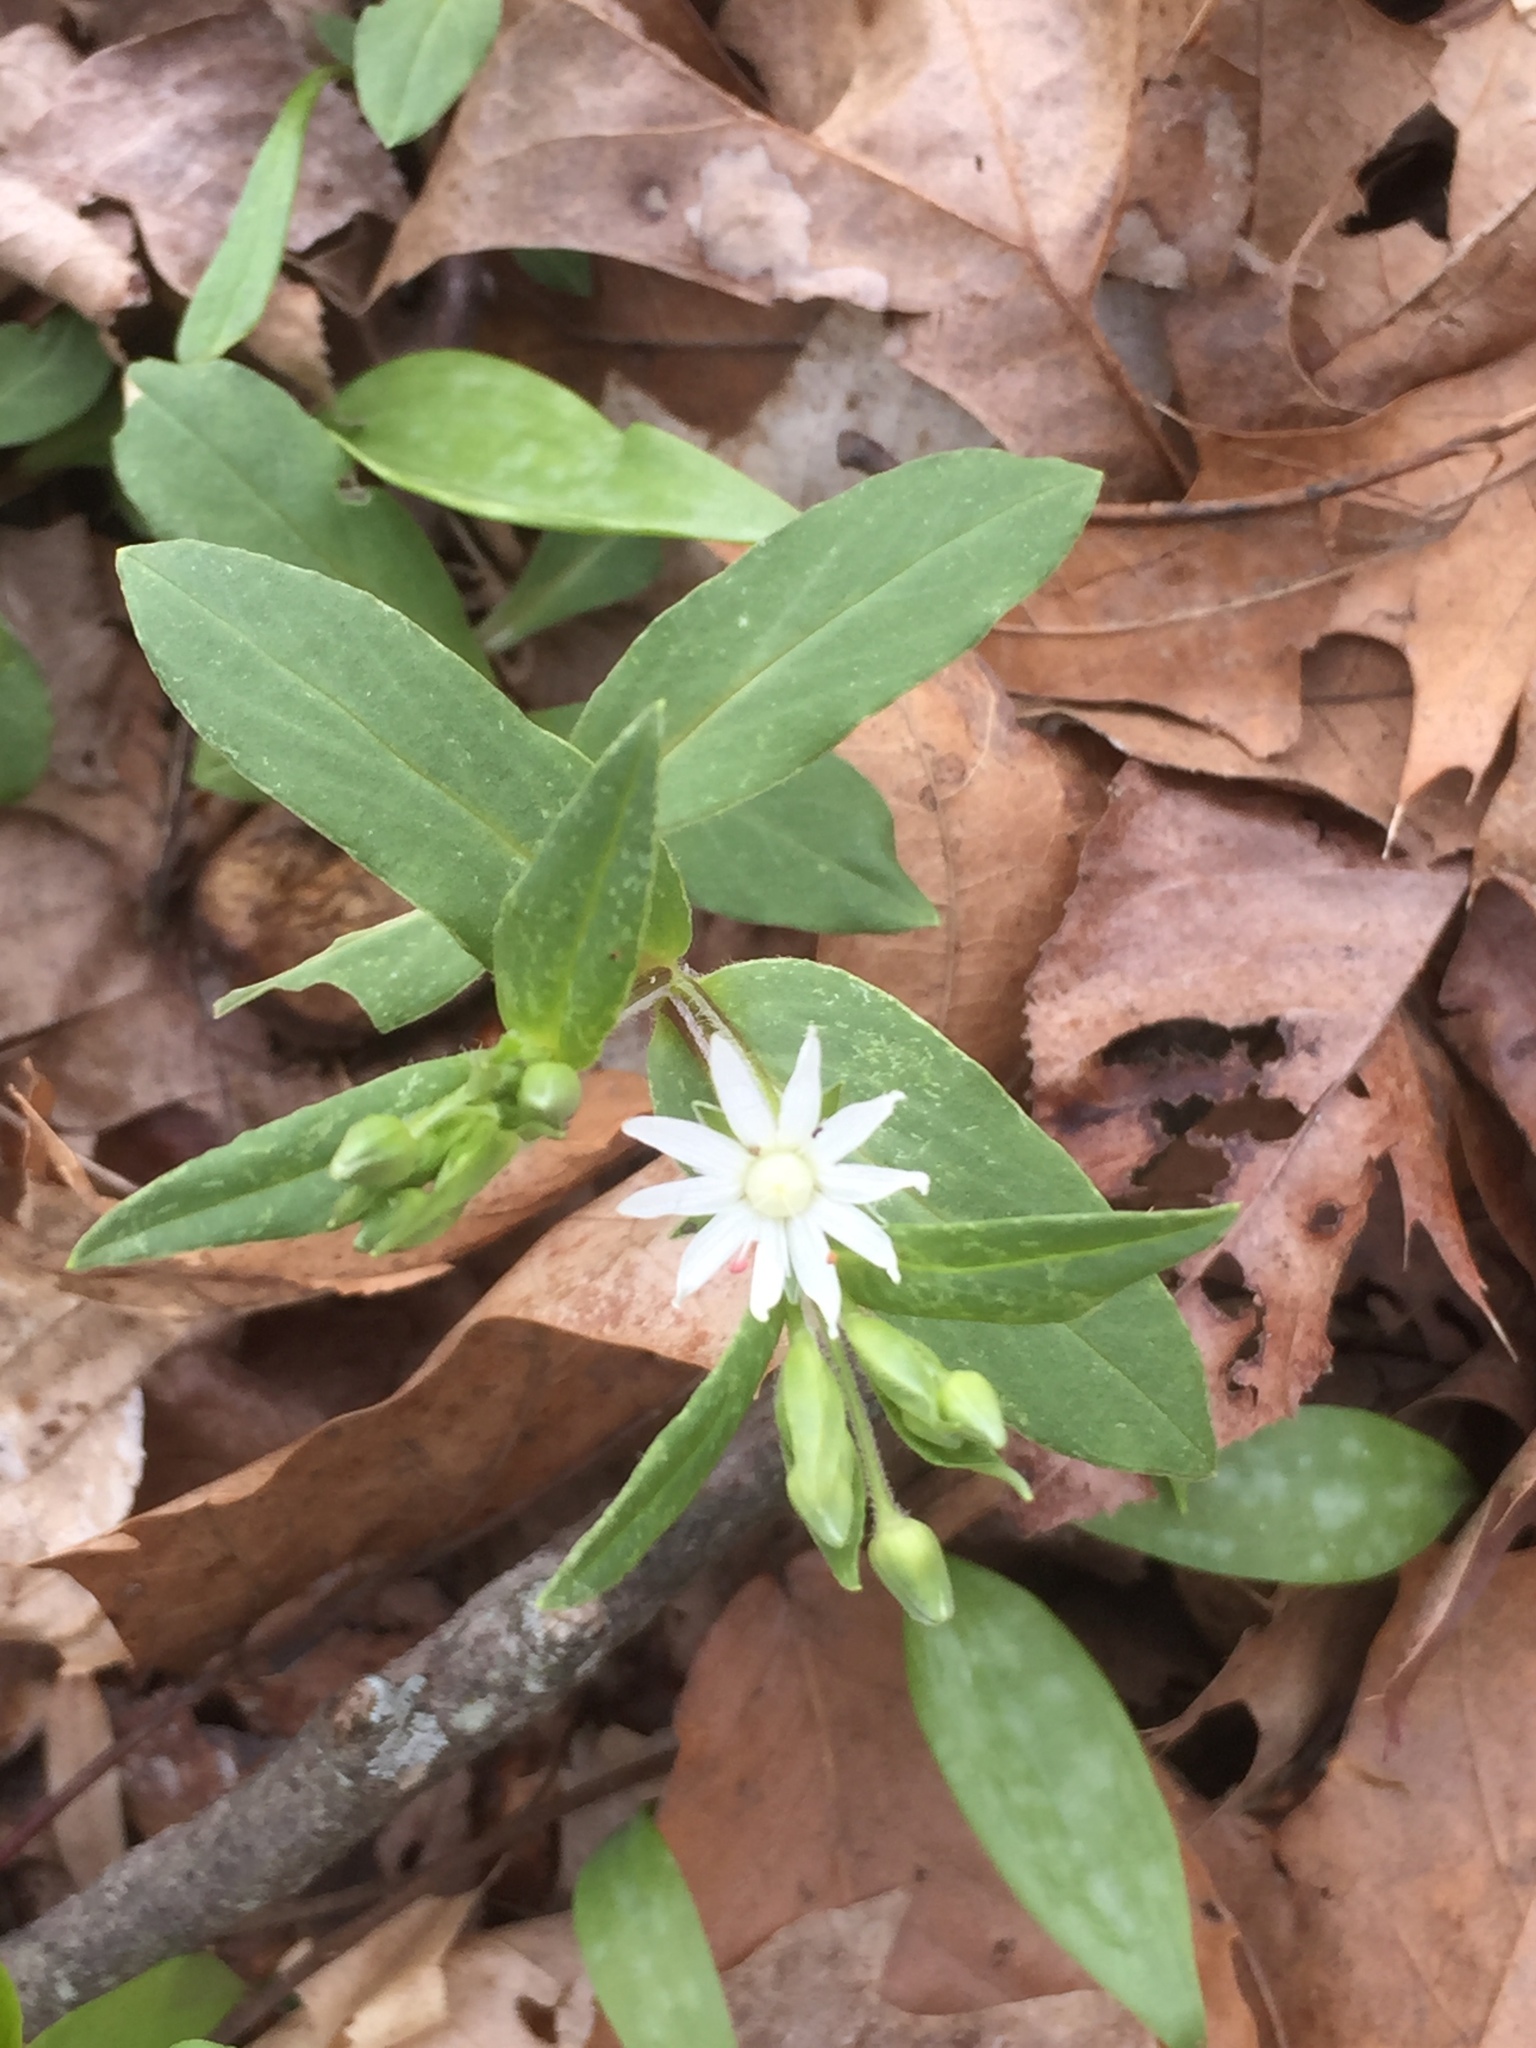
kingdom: Plantae
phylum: Tracheophyta
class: Magnoliopsida
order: Caryophyllales
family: Caryophyllaceae
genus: Stellaria
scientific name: Stellaria pubera
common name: Star chickweed
